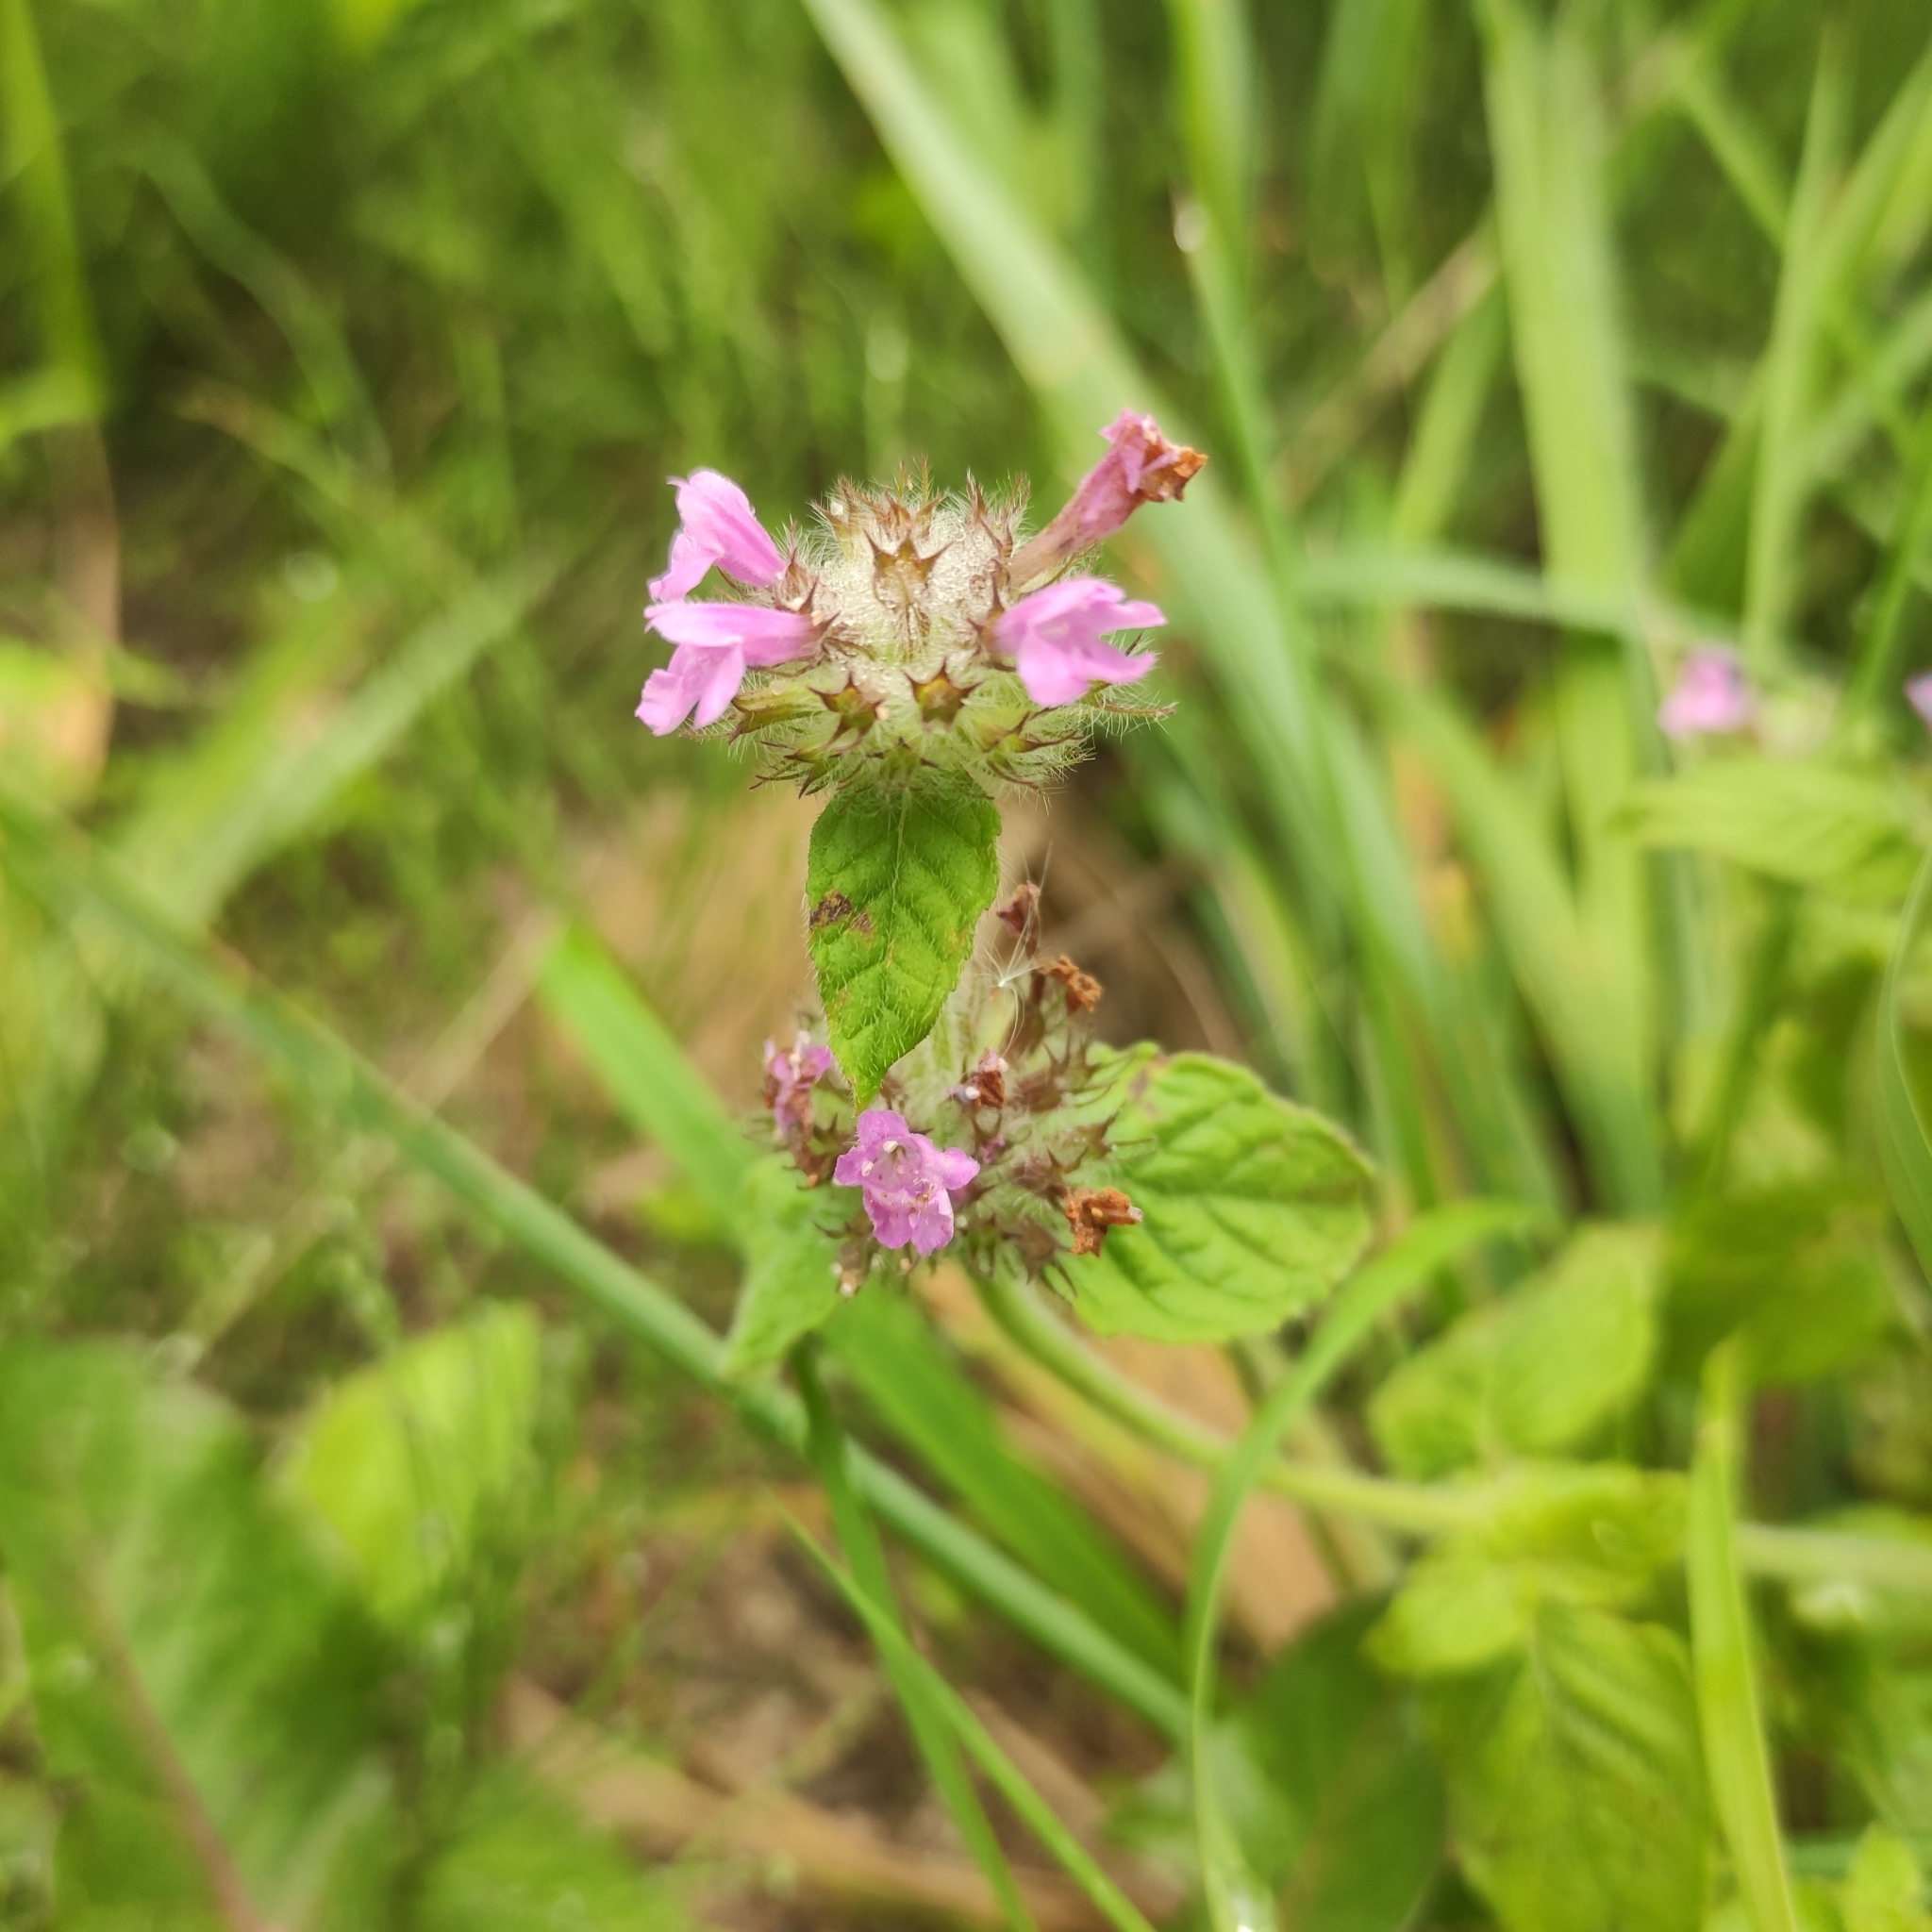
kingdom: Plantae
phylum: Tracheophyta
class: Magnoliopsida
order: Lamiales
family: Lamiaceae
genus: Clinopodium
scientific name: Clinopodium vulgare
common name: Wild basil
